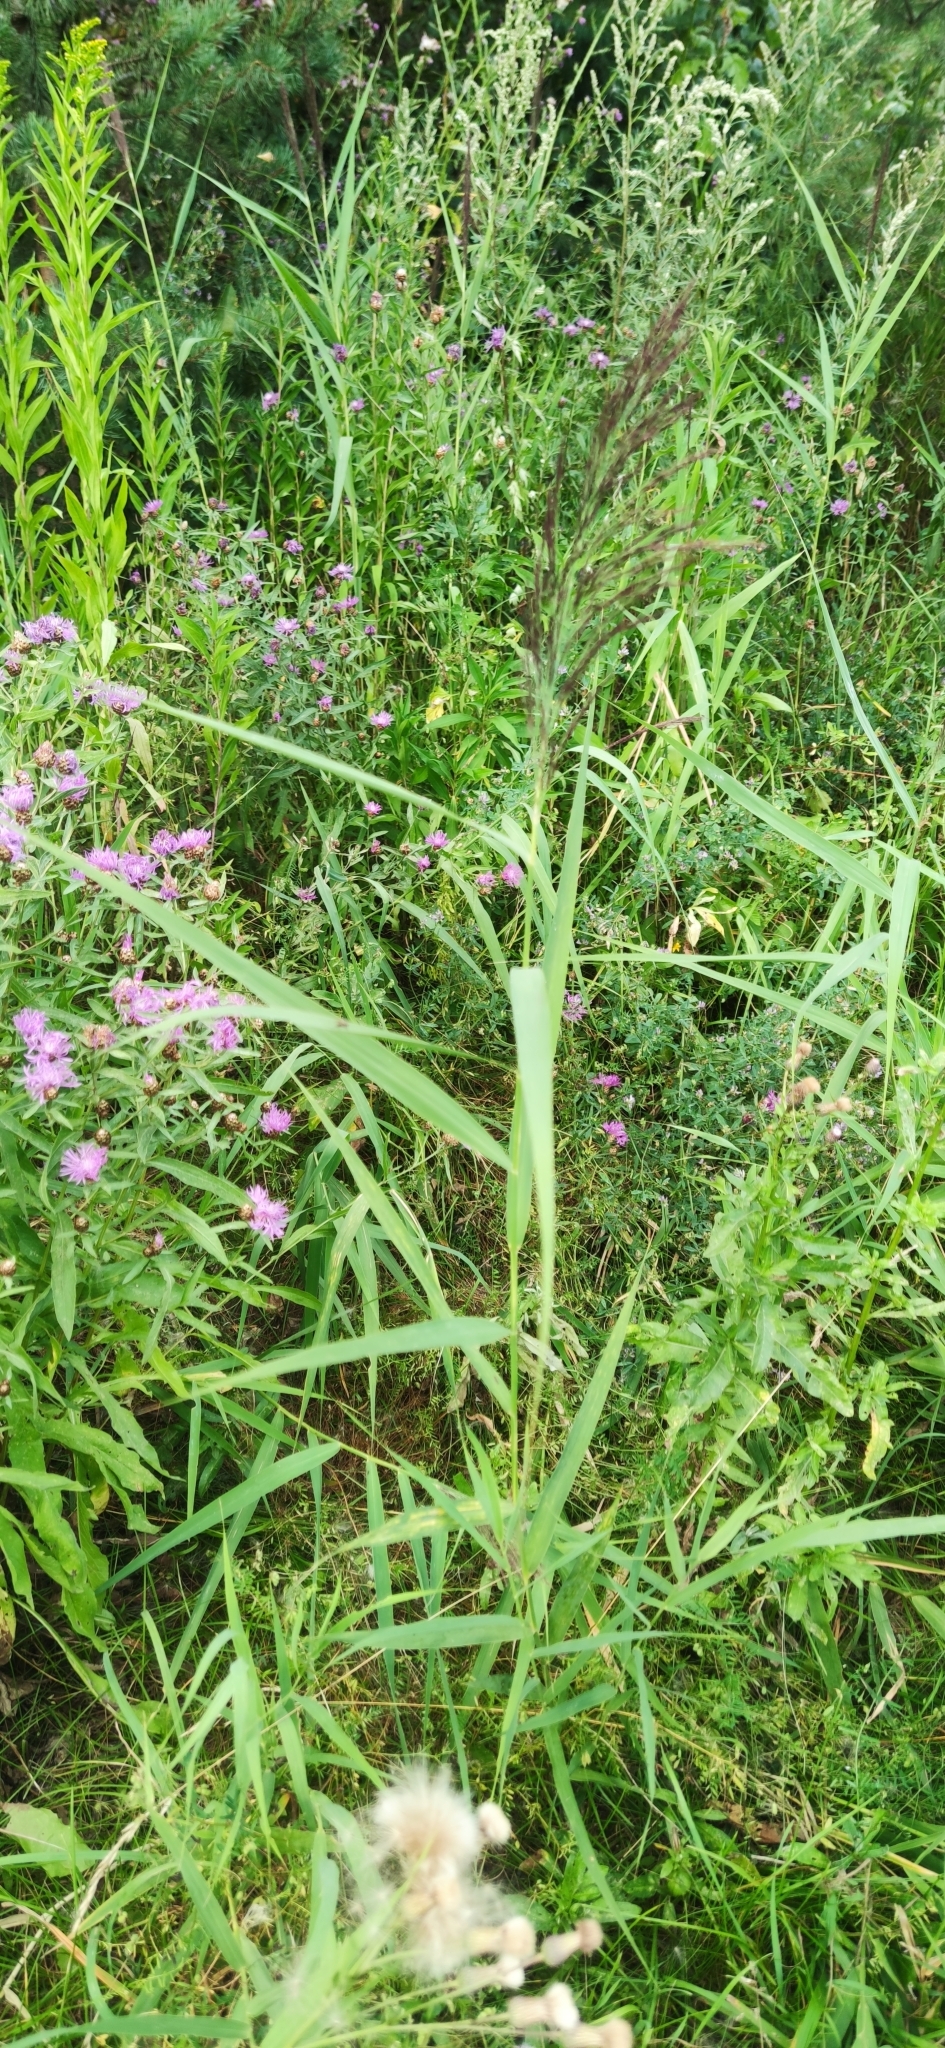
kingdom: Plantae
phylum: Tracheophyta
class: Liliopsida
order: Poales
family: Poaceae
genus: Phragmites
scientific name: Phragmites australis
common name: Common reed
